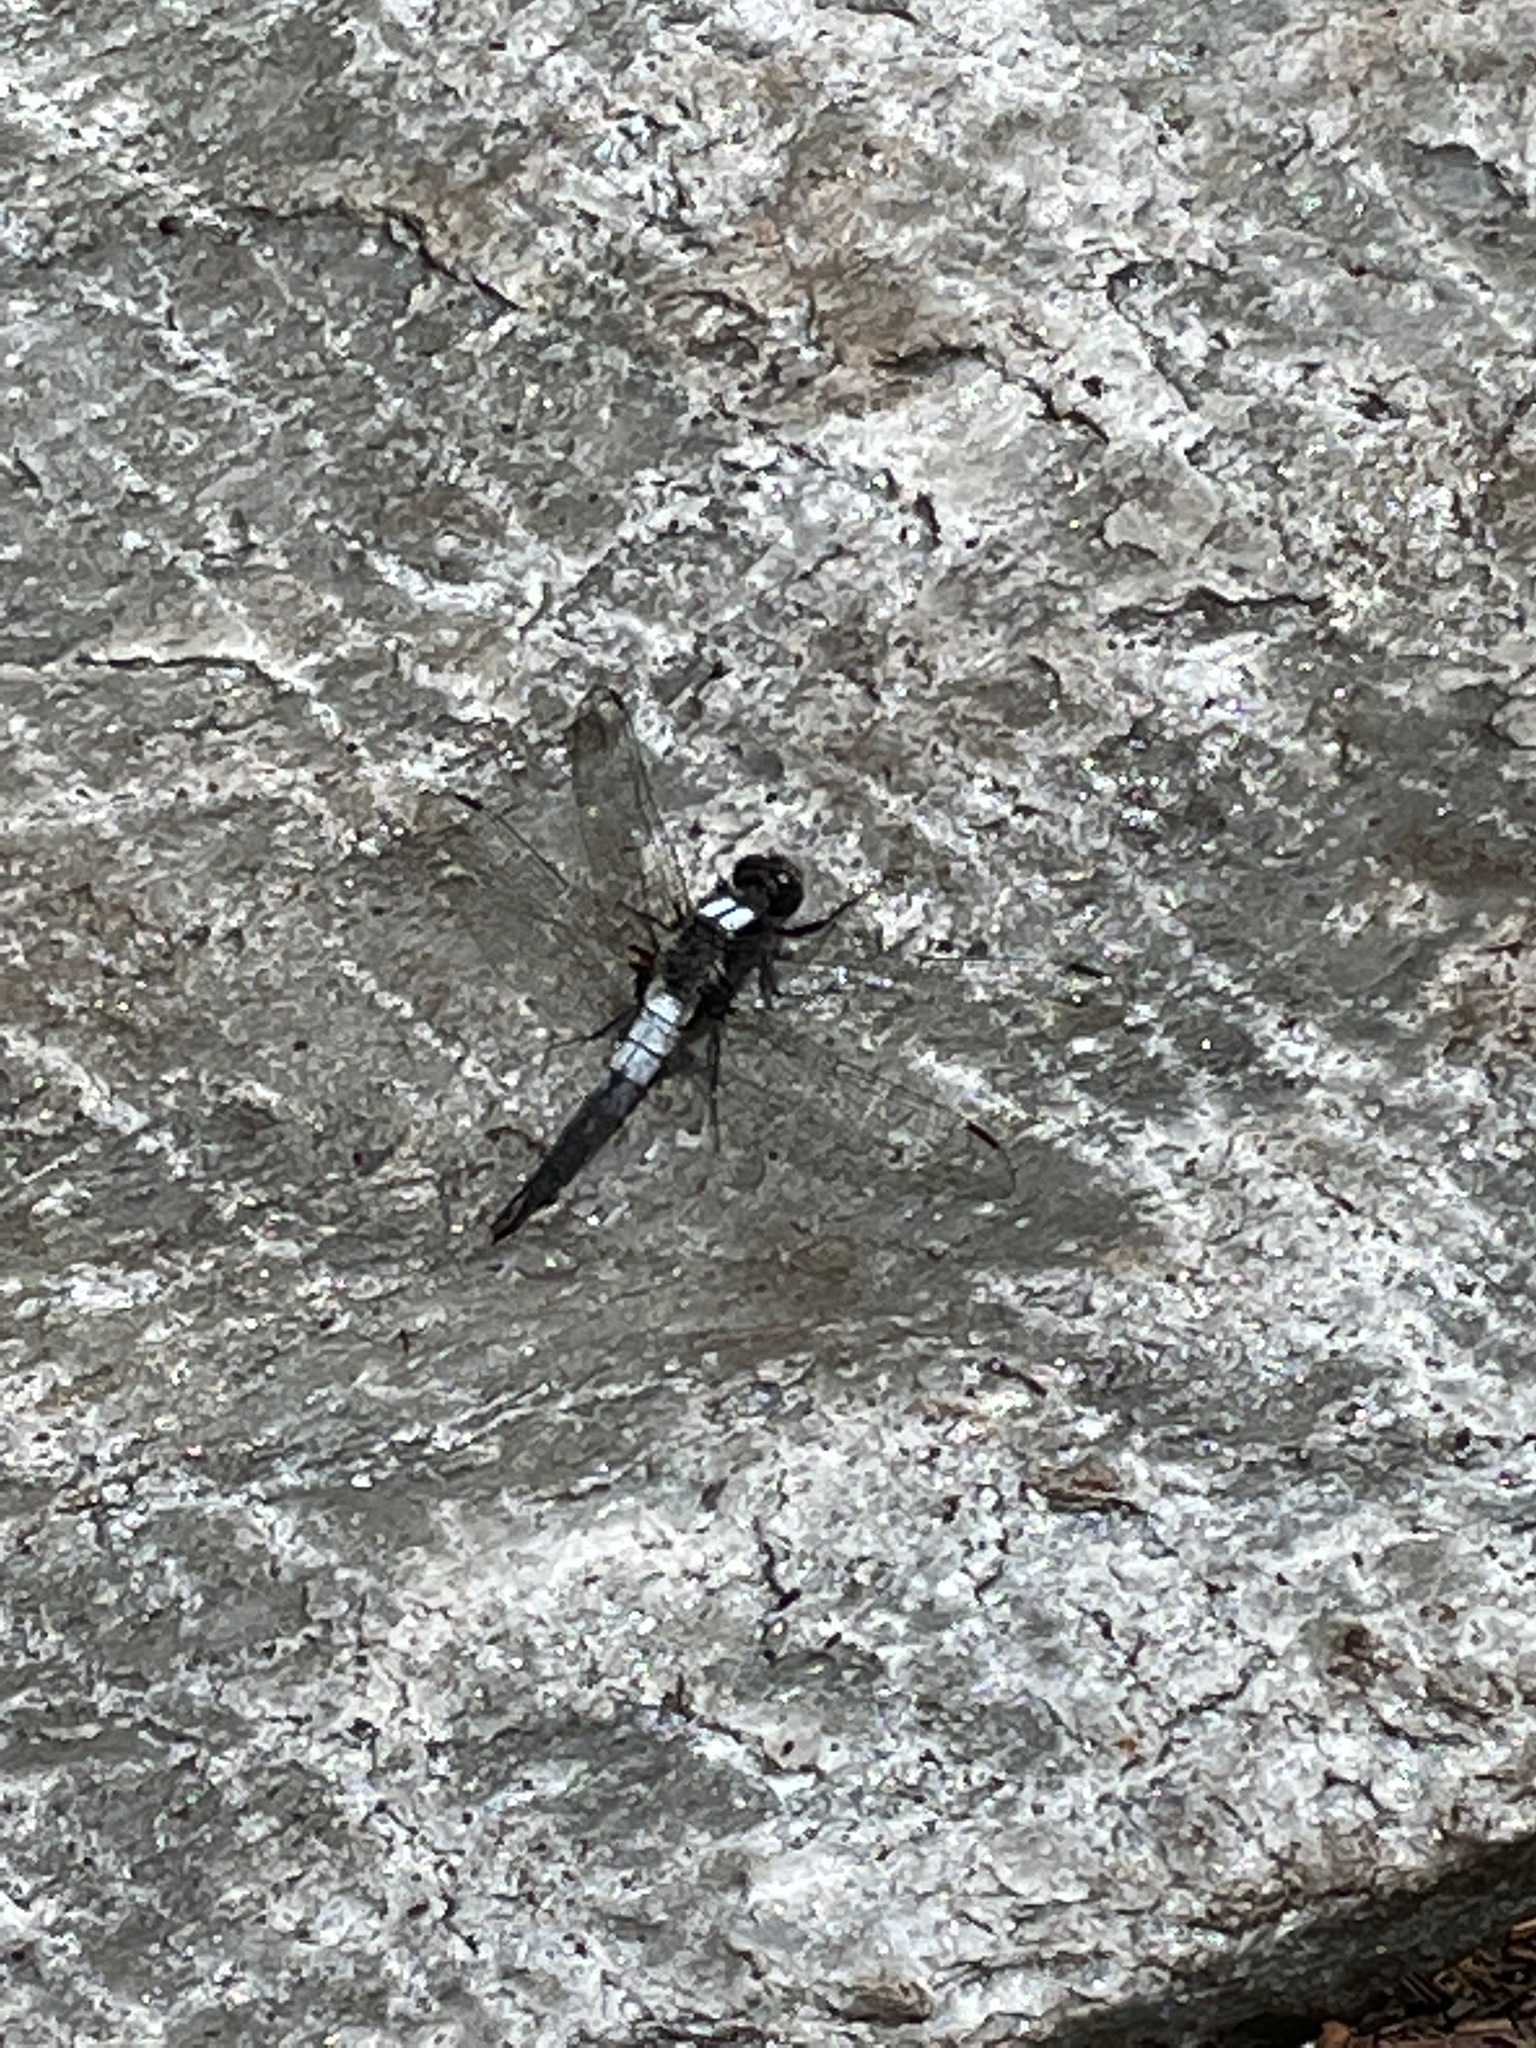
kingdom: Animalia
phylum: Arthropoda
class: Insecta
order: Odonata
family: Libellulidae
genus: Ladona
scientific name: Ladona julia
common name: Chalk-fronted corporal
